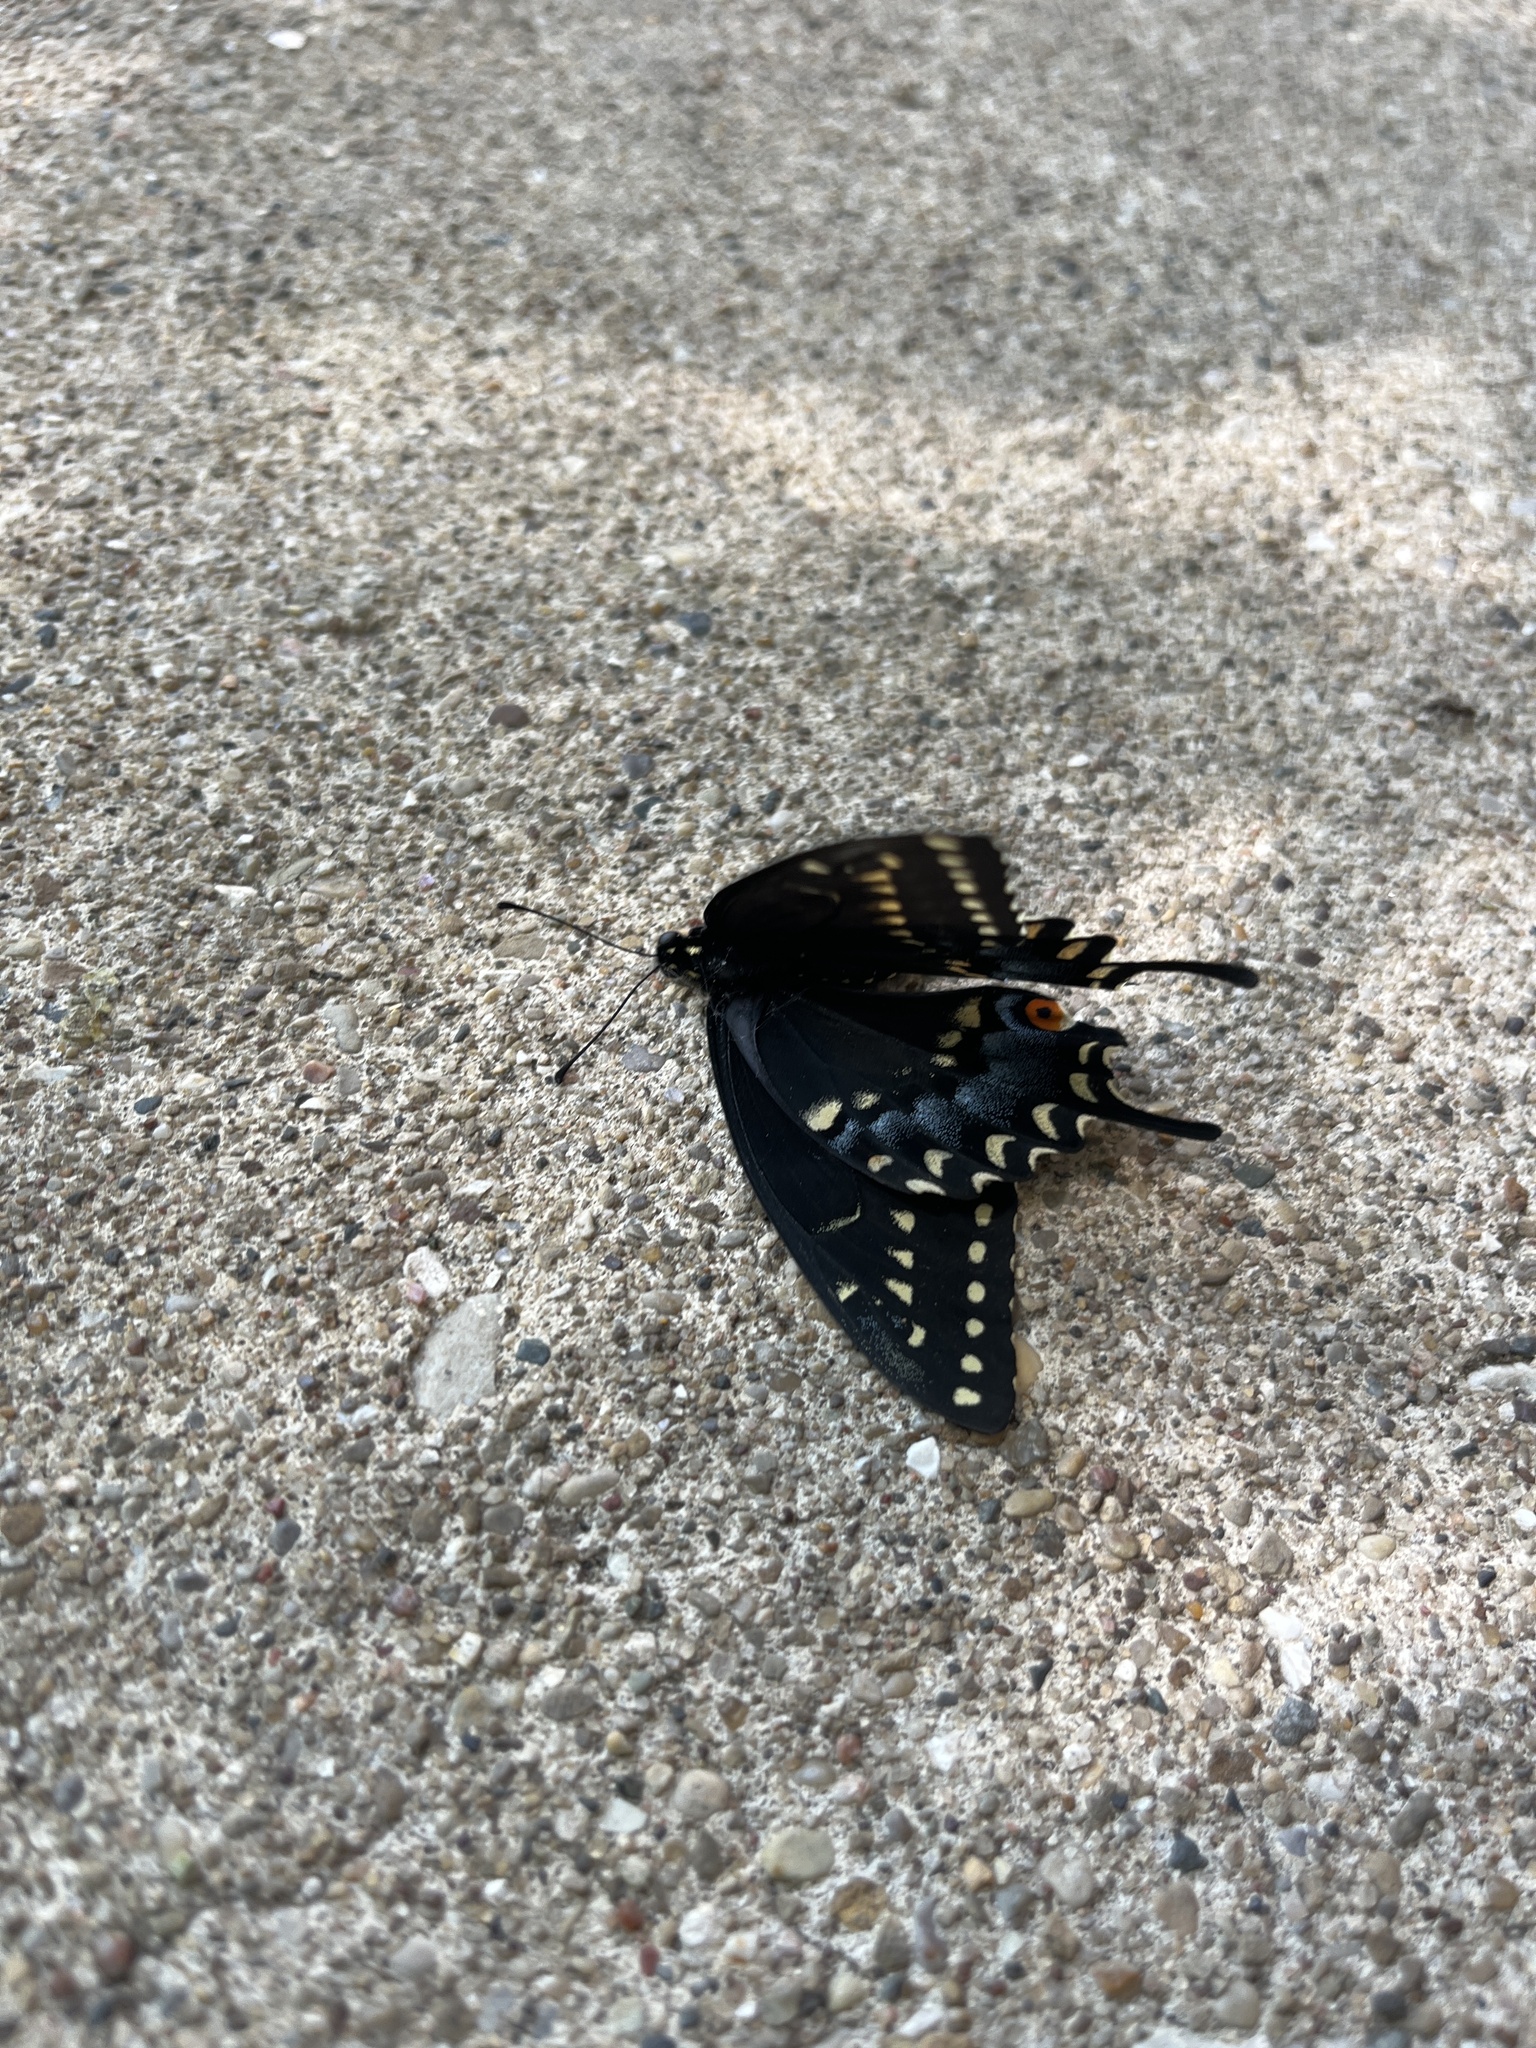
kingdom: Animalia
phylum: Arthropoda
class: Insecta
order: Lepidoptera
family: Papilionidae
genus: Papilio
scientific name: Papilio polyxenes
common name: Black swallowtail
